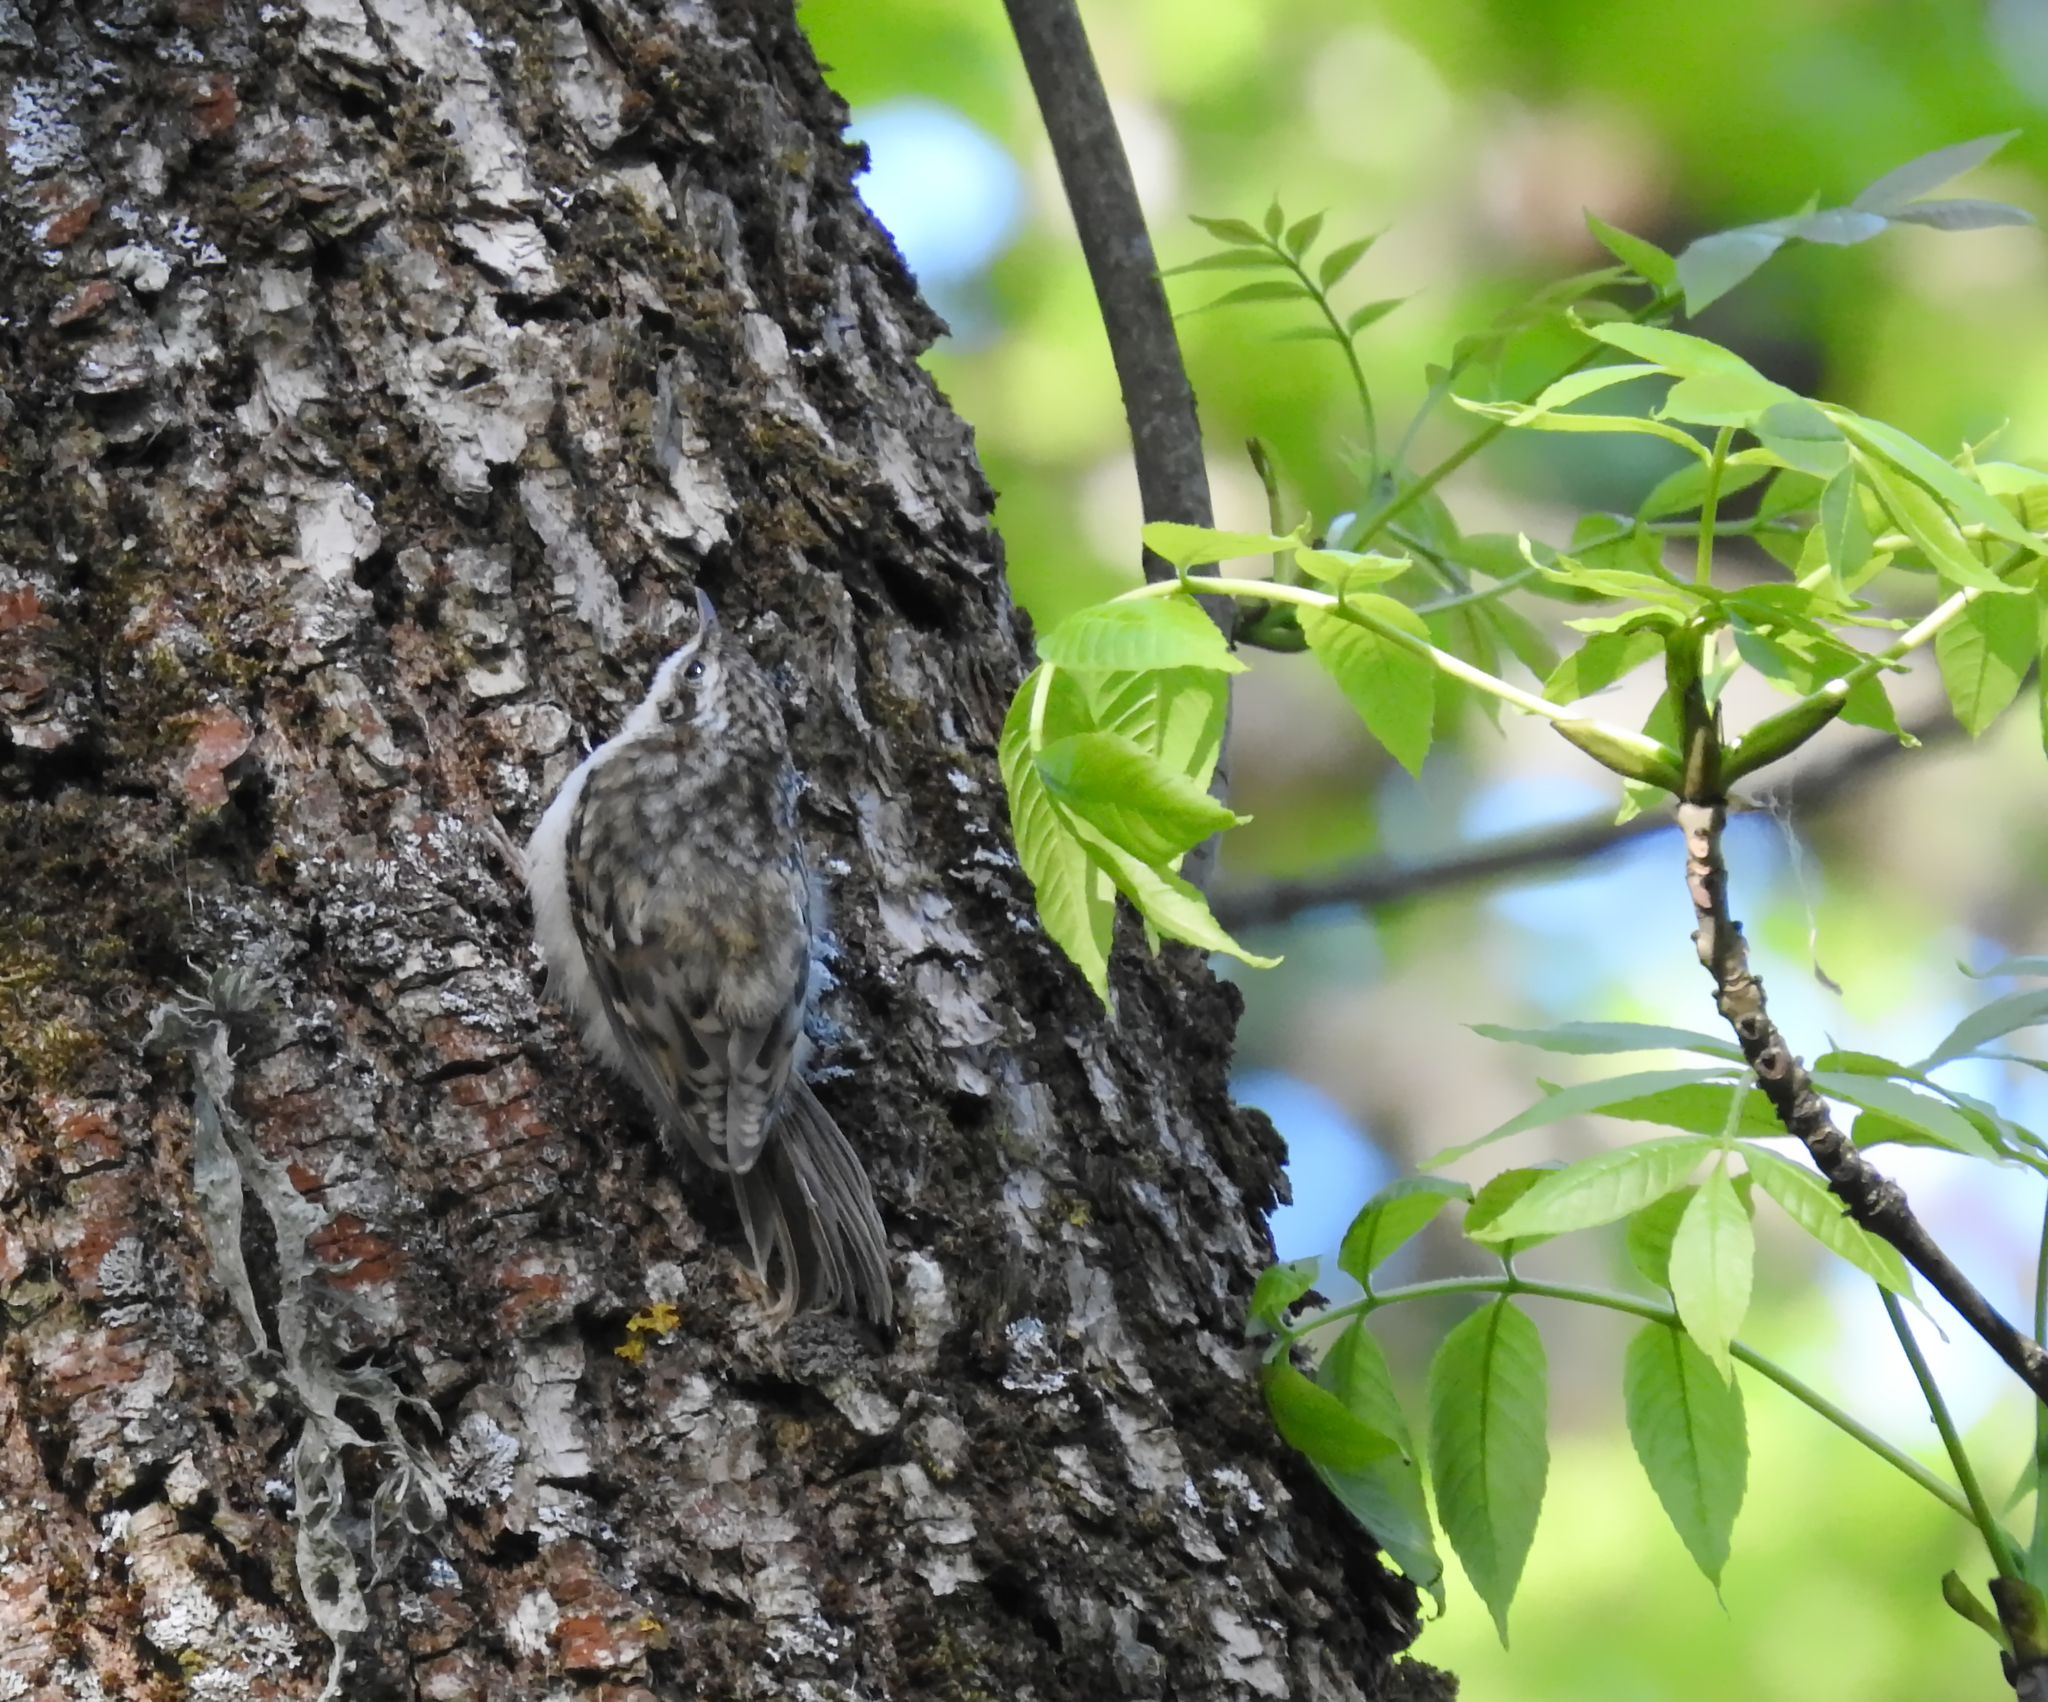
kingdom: Animalia
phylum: Chordata
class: Aves
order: Passeriformes
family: Certhiidae
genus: Certhia
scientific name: Certhia familiaris
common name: Eurasian treecreeper
